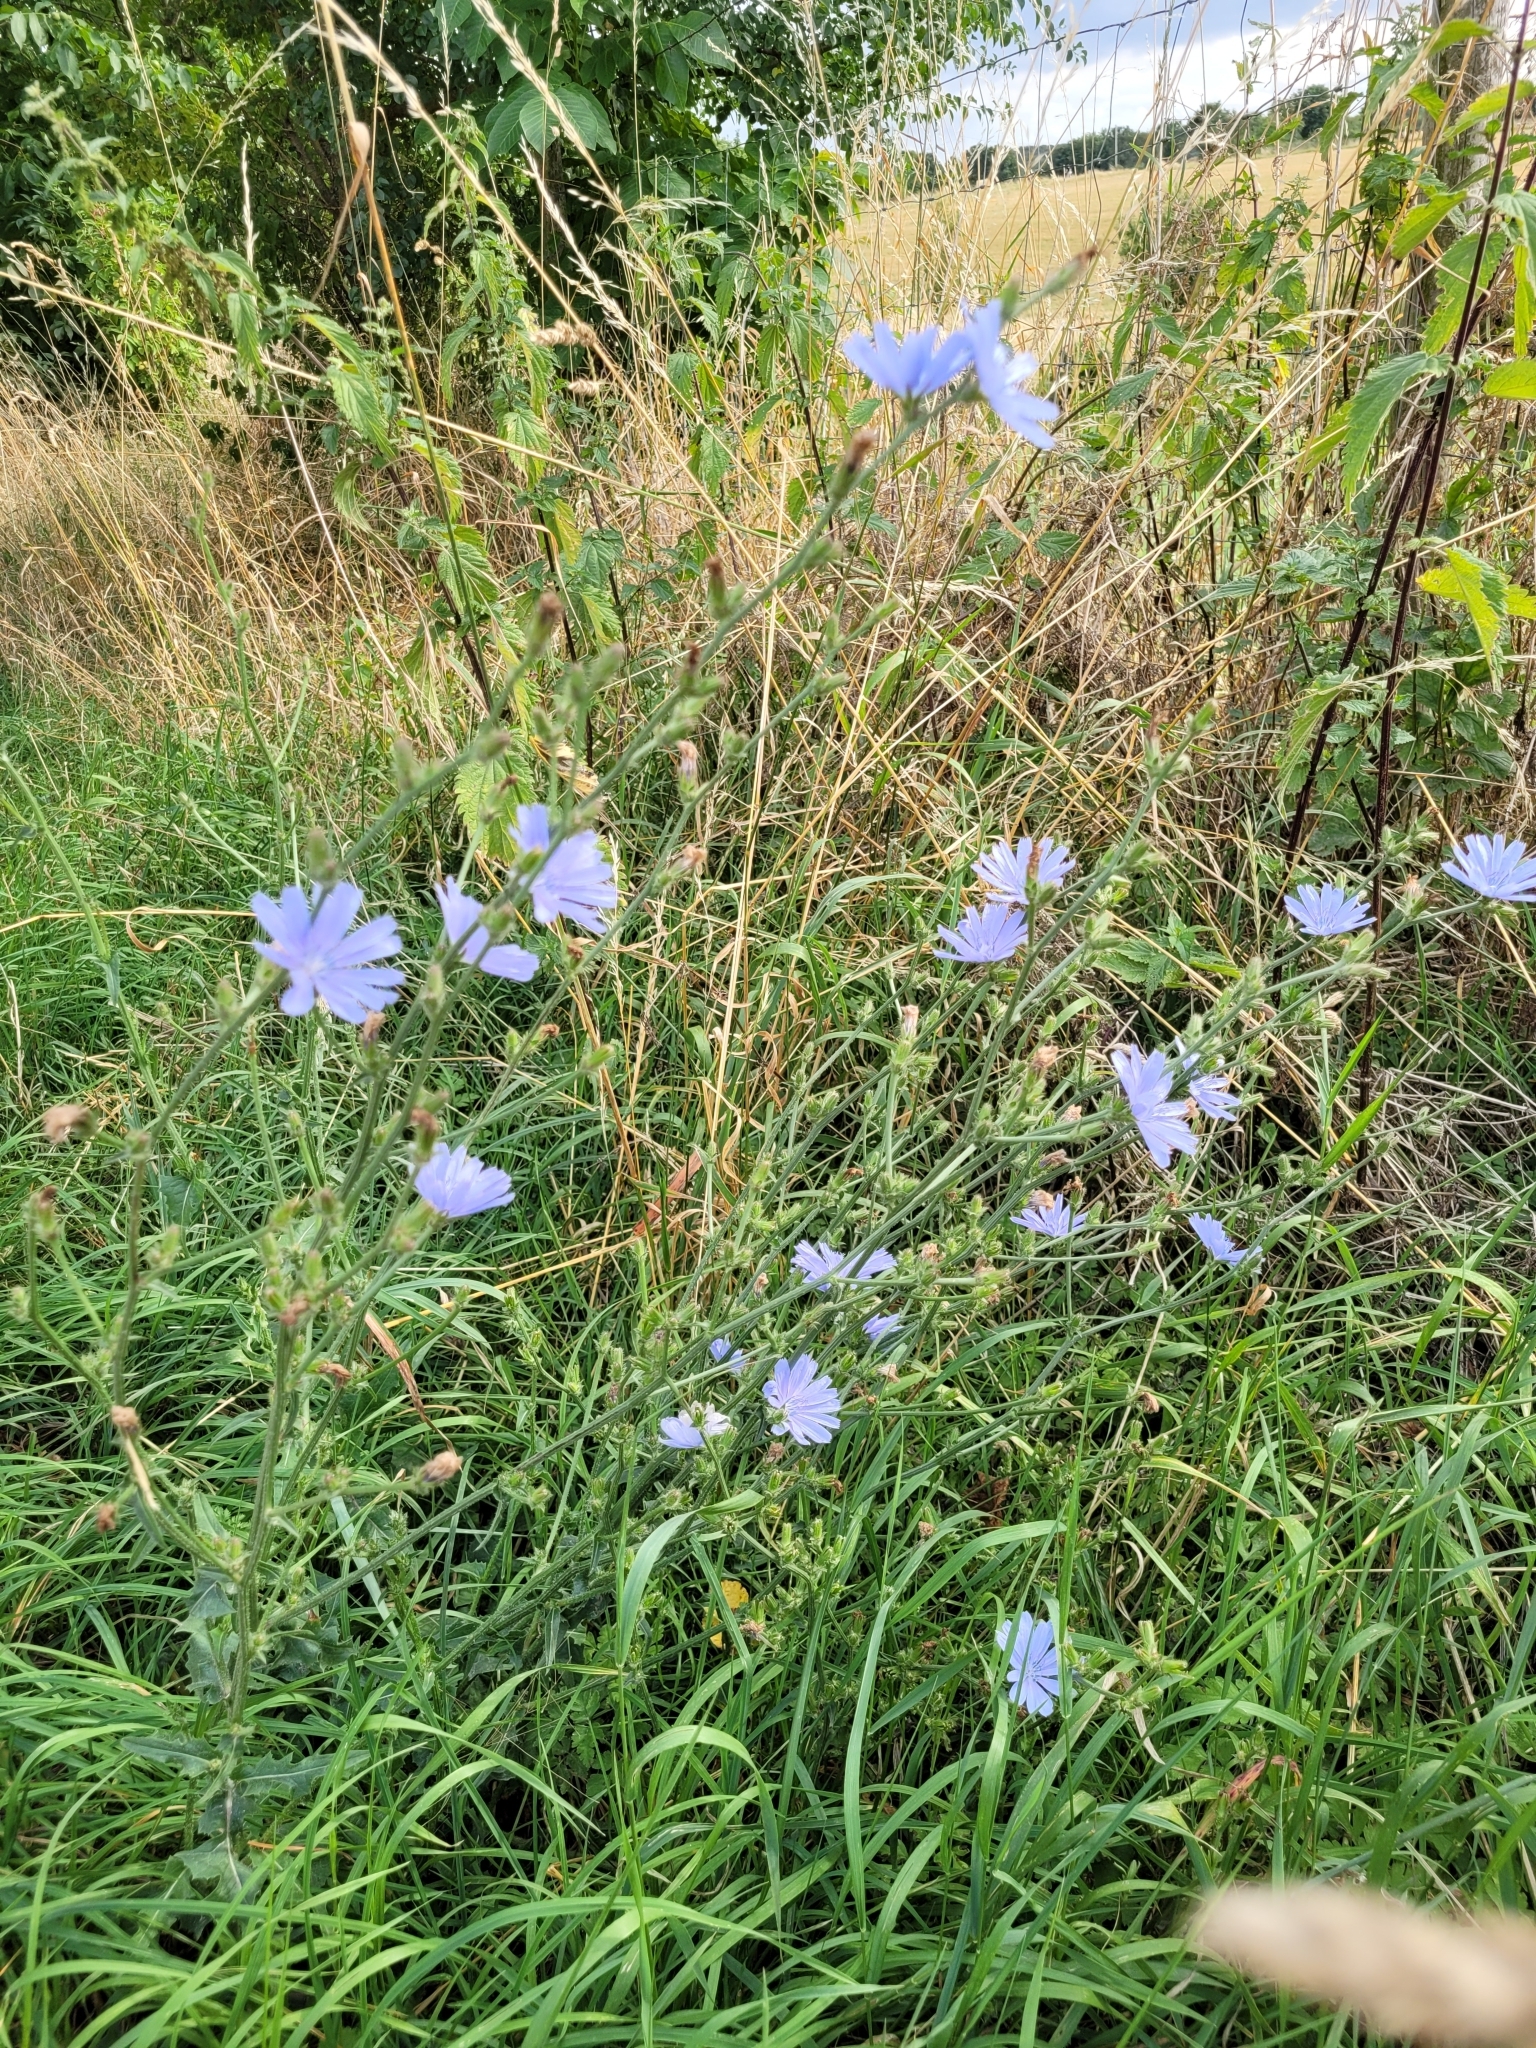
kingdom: Plantae
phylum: Tracheophyta
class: Magnoliopsida
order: Asterales
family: Asteraceae
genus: Cichorium
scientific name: Cichorium intybus
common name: Chicory
